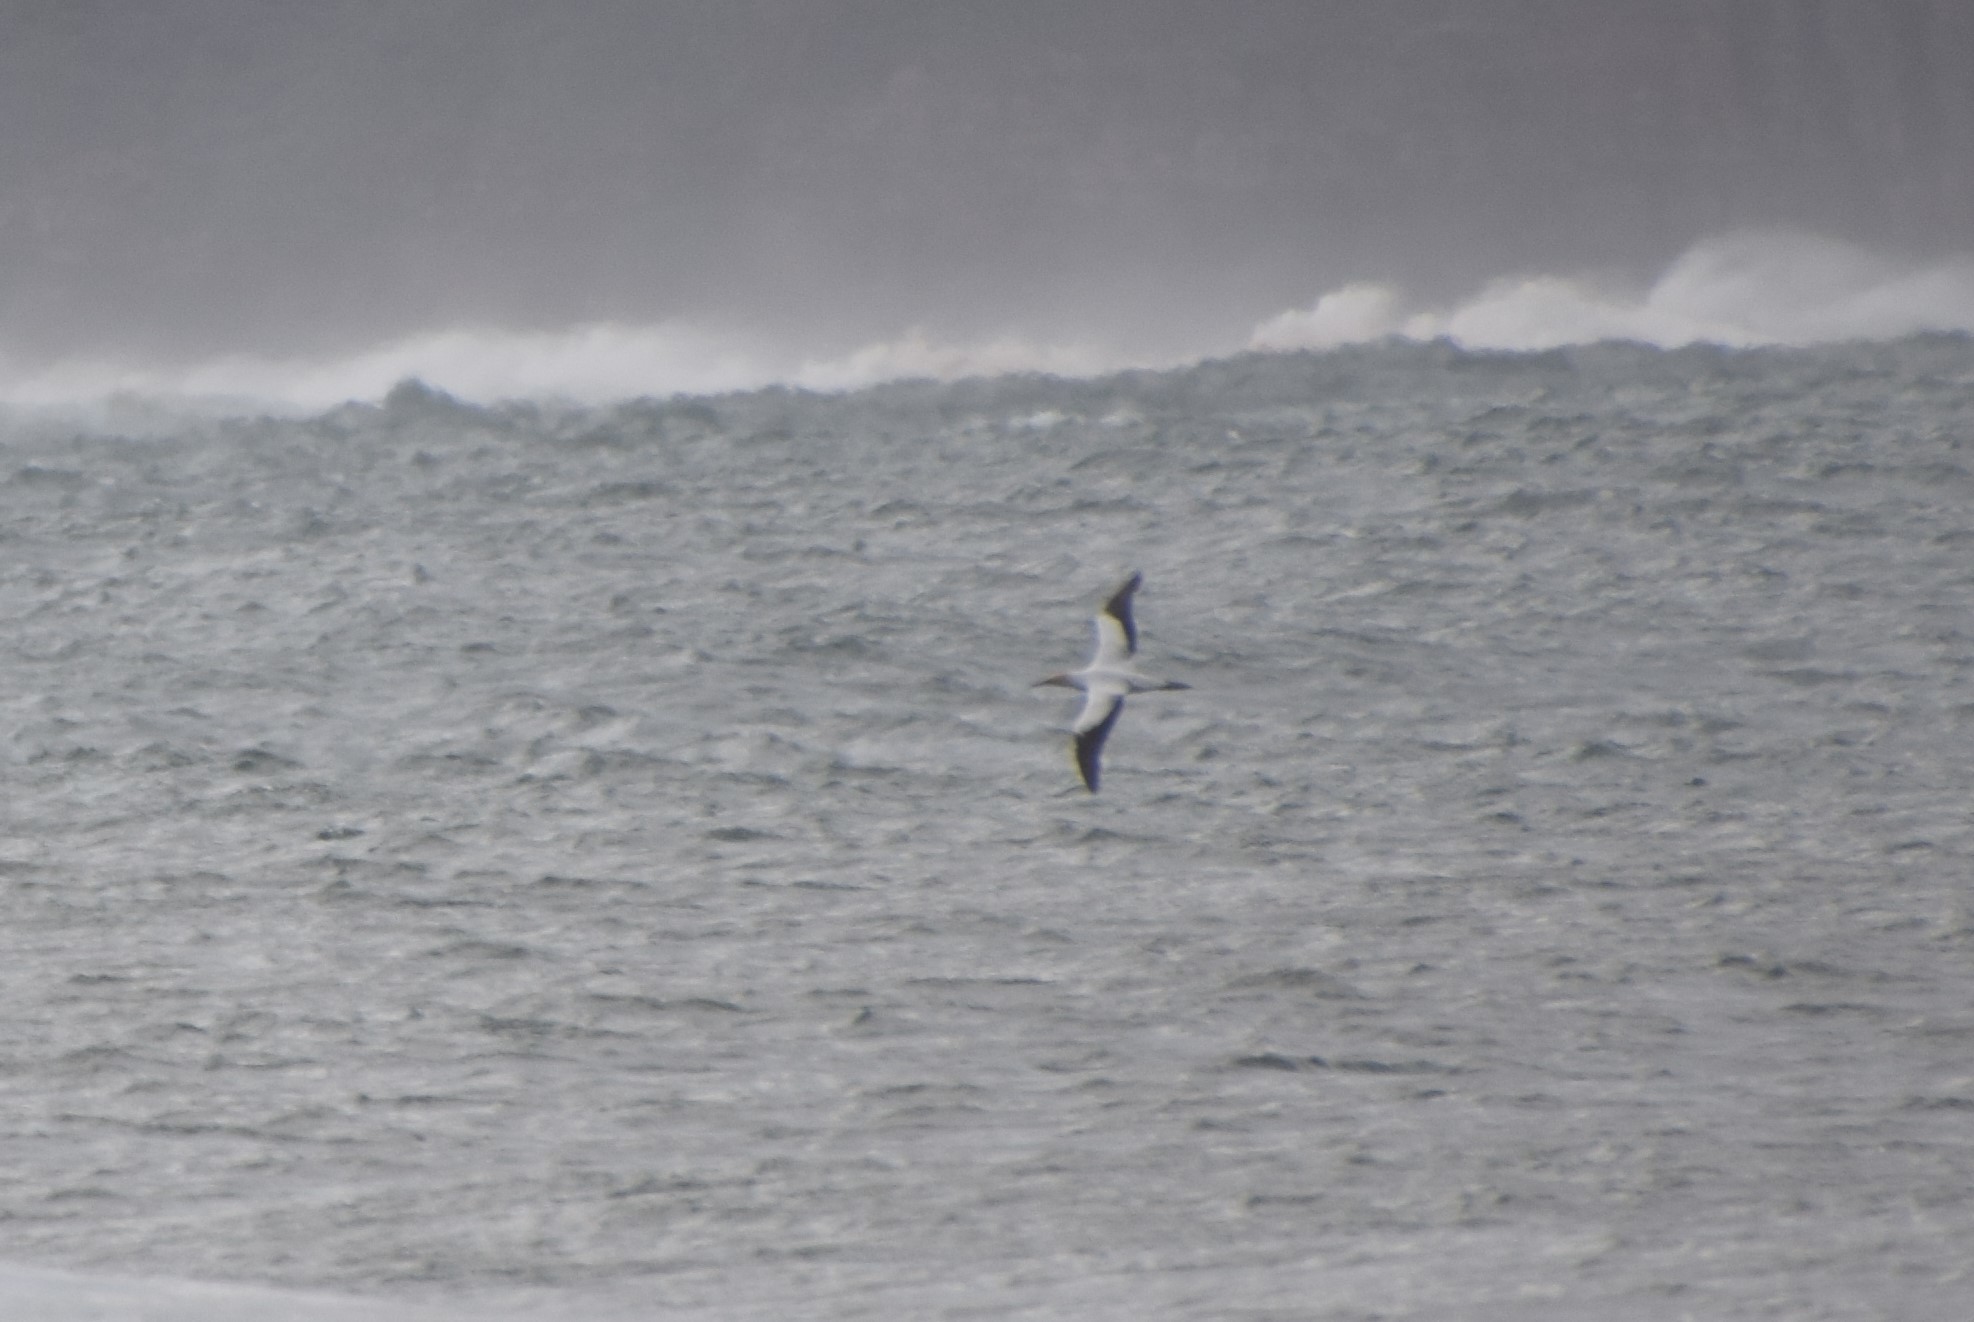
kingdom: Animalia
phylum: Chordata
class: Aves
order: Suliformes
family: Sulidae
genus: Morus
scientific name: Morus serrator
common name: Australasian gannet
